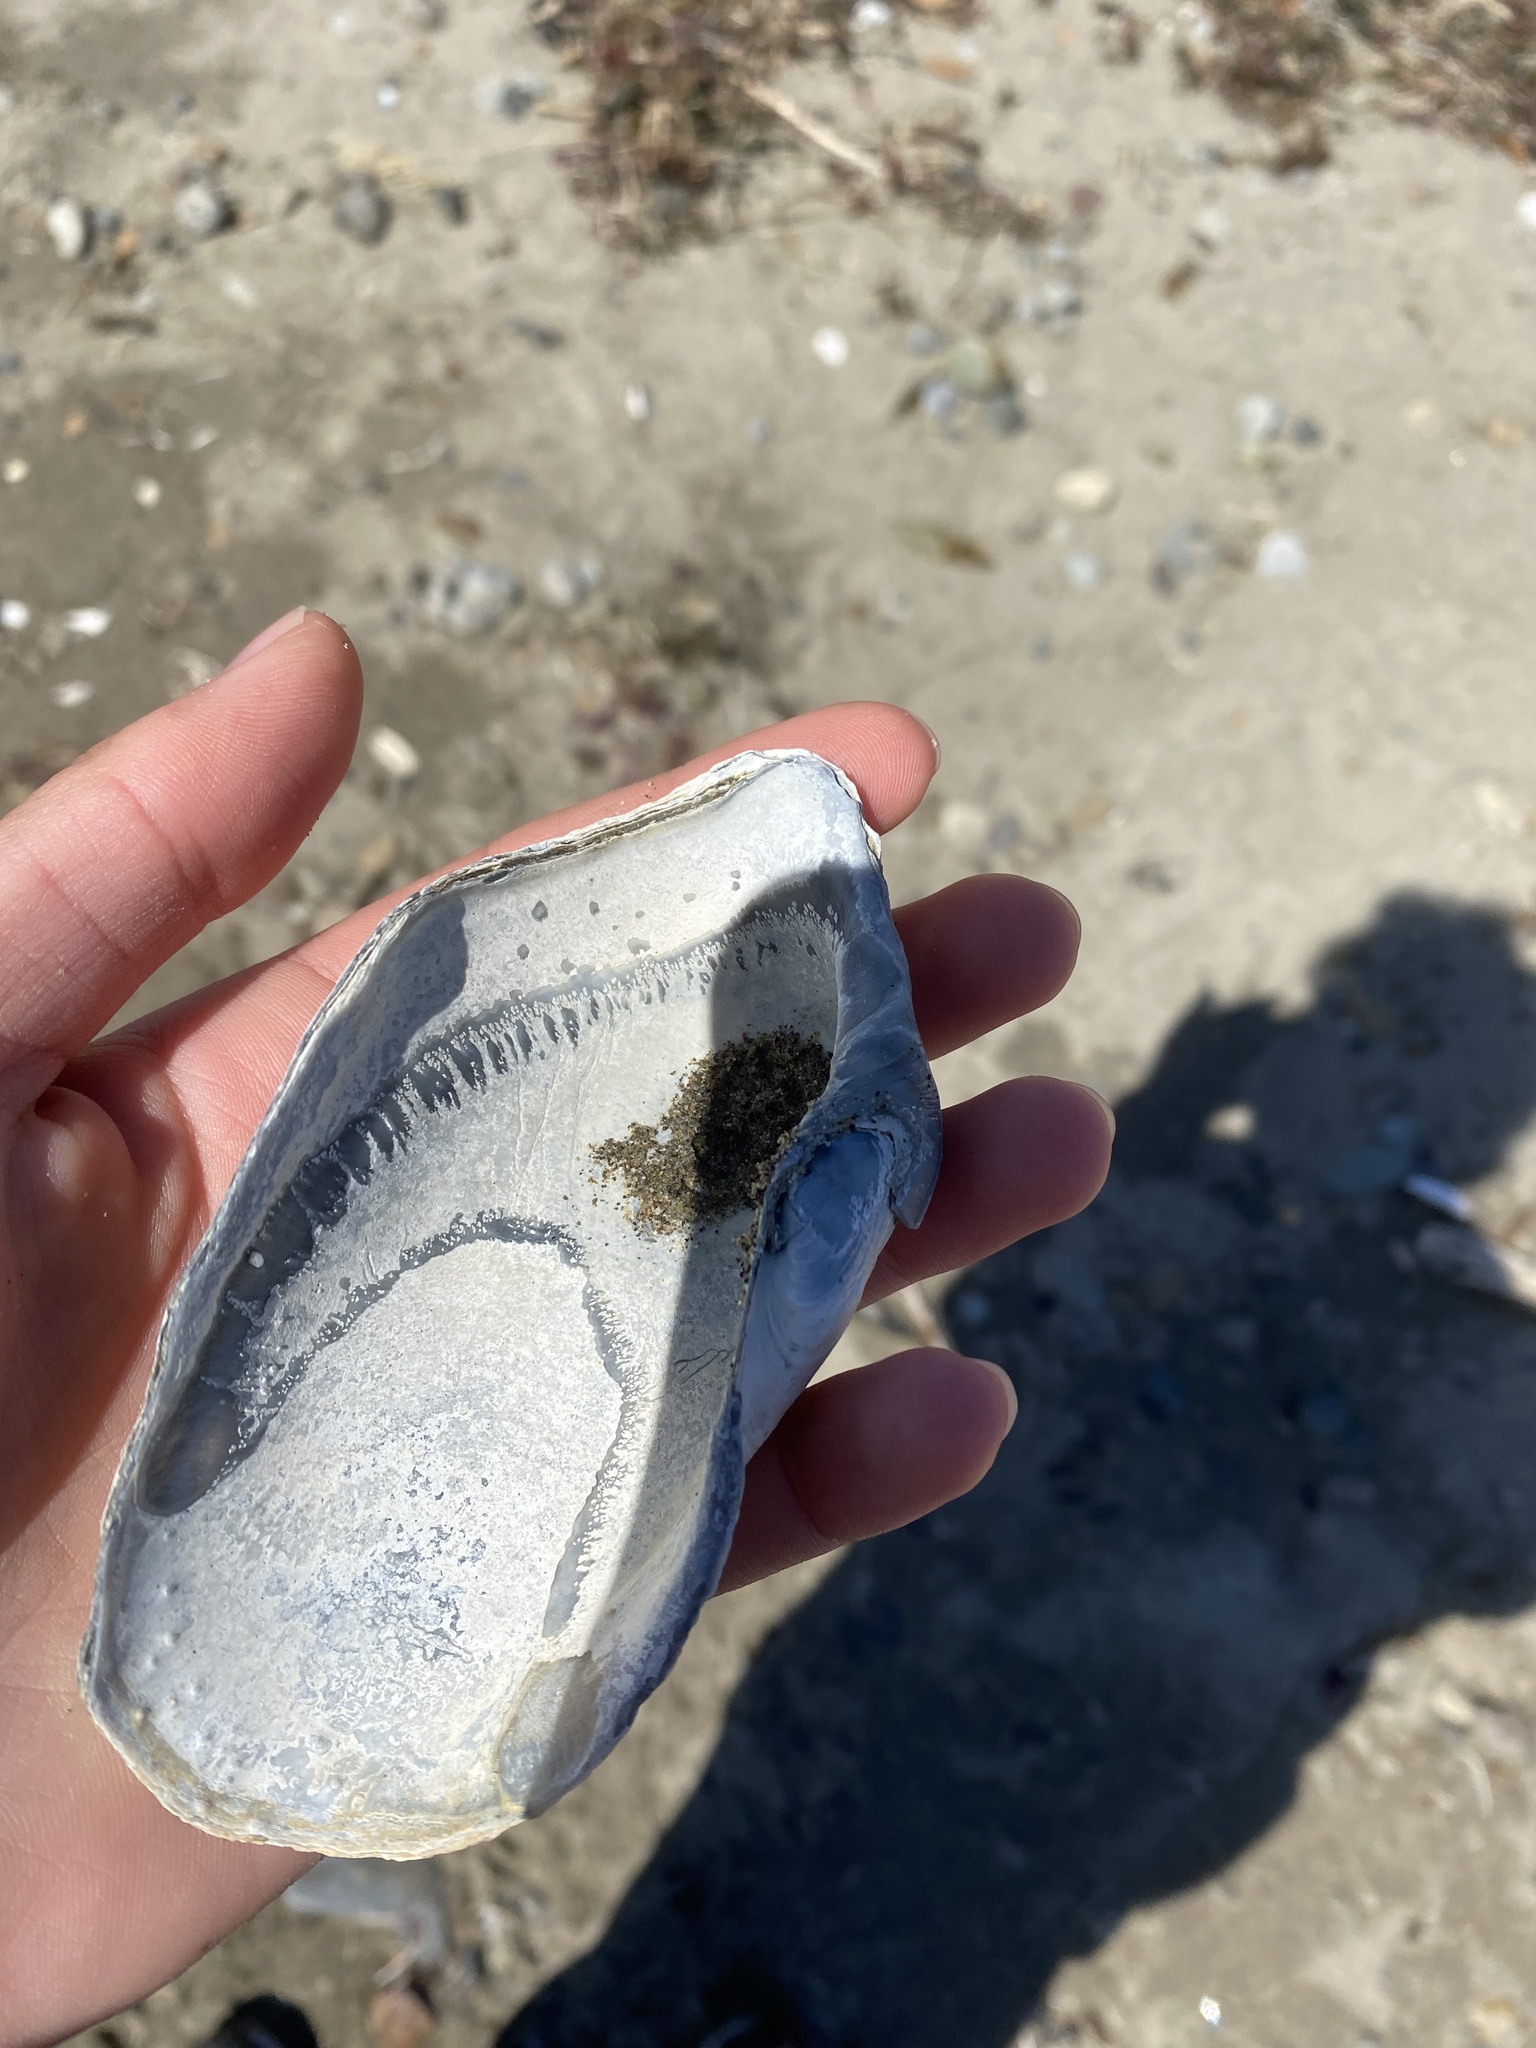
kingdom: Animalia
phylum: Mollusca
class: Bivalvia
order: Myida
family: Pholadidae
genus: Zirfaea
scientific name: Zirfaea pilsbryi
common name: Rough piddock
